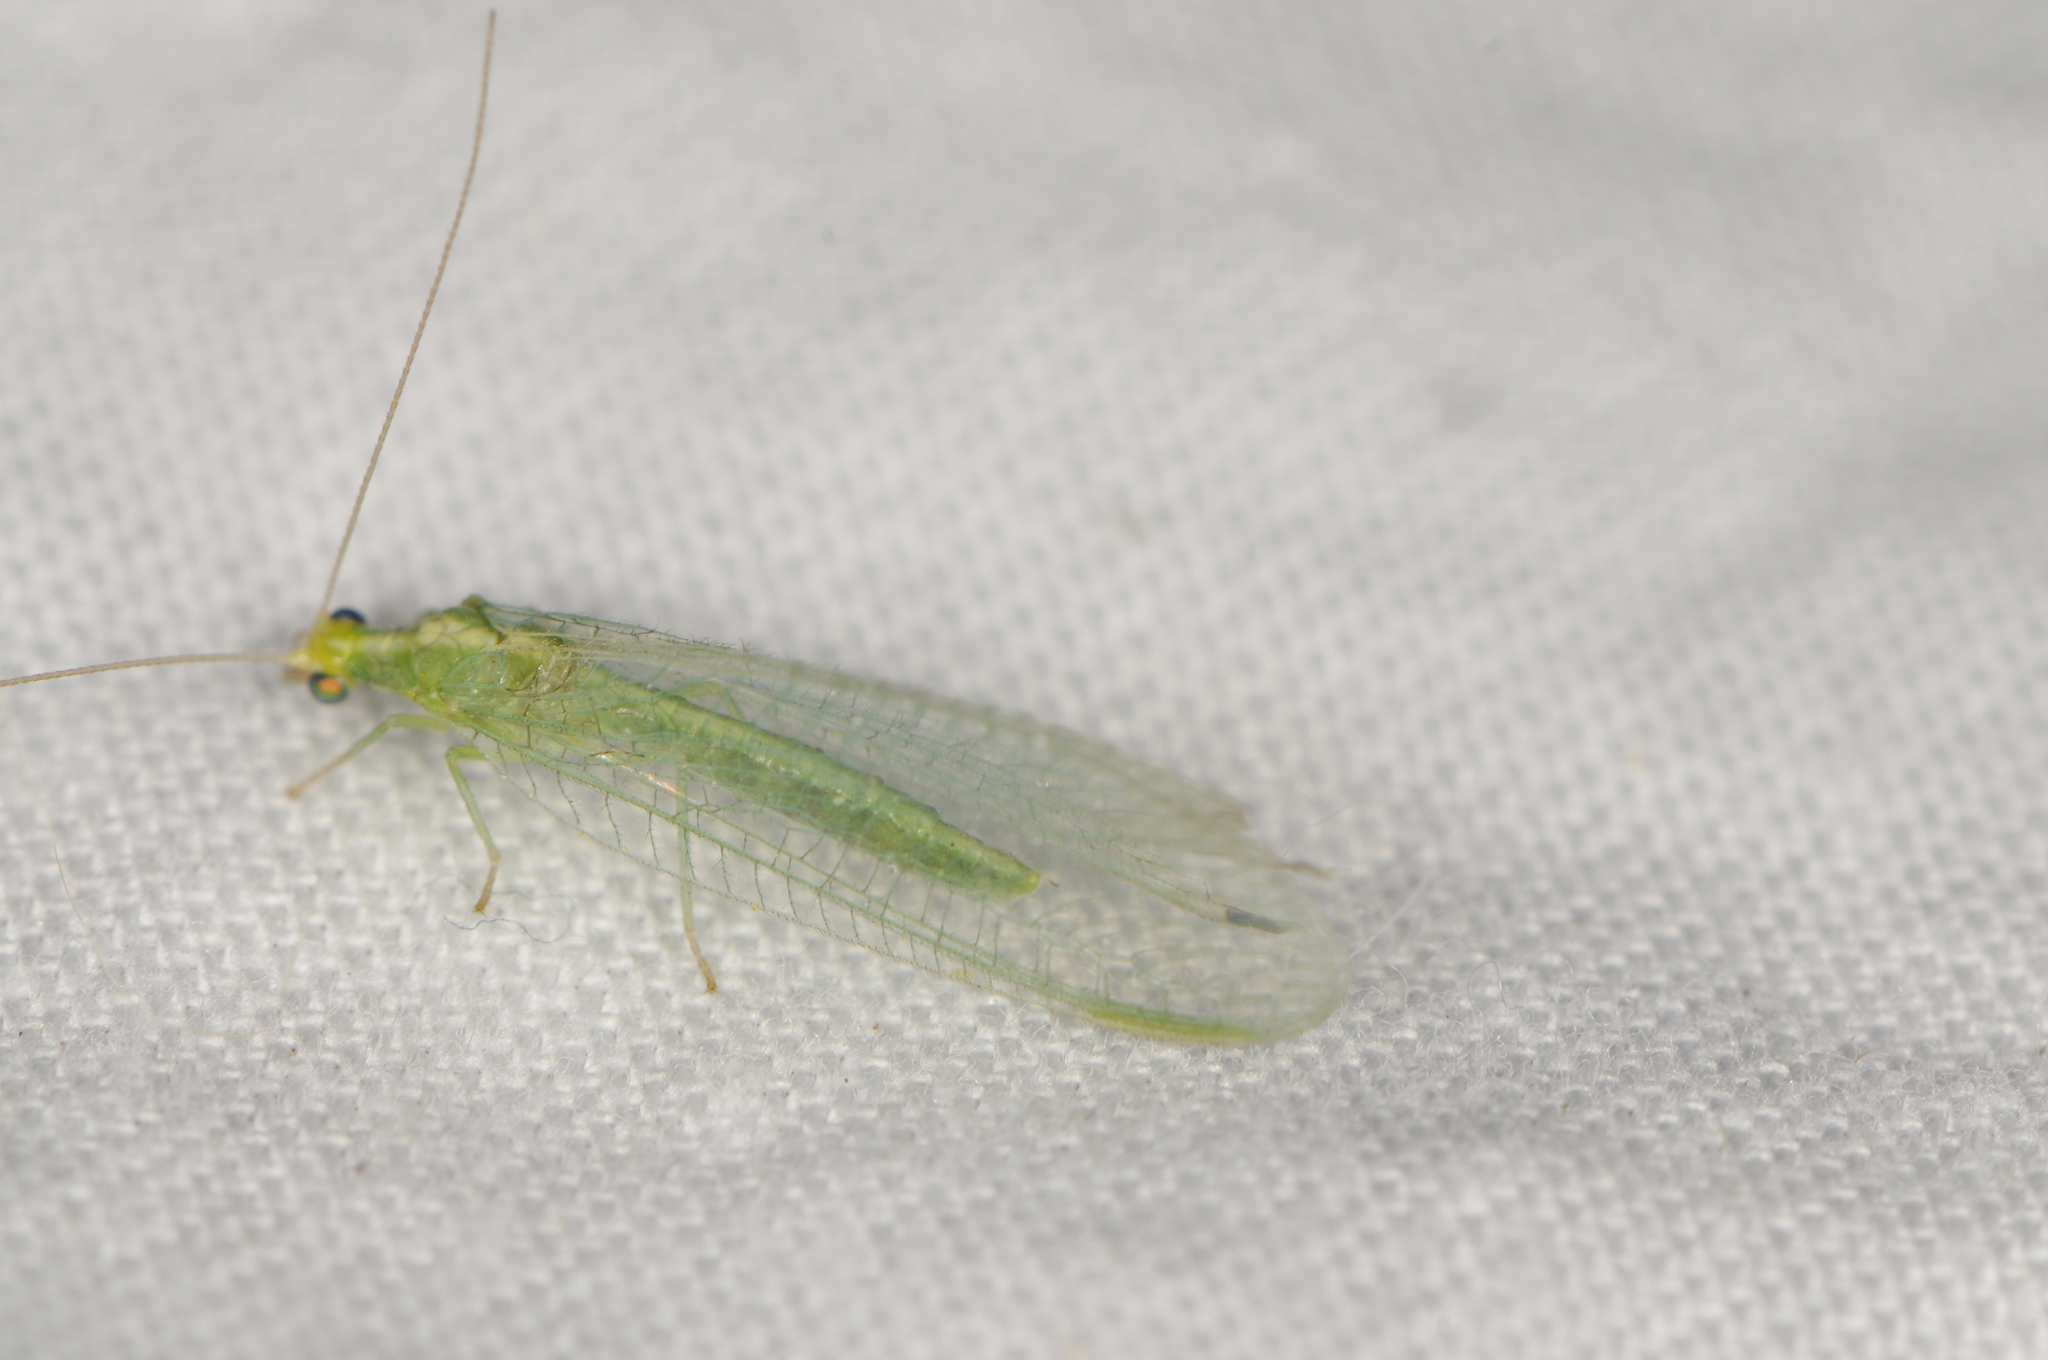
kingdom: Animalia
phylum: Arthropoda
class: Insecta
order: Neuroptera
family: Chrysopidae
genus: Chrysoperla
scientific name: Chrysoperla
